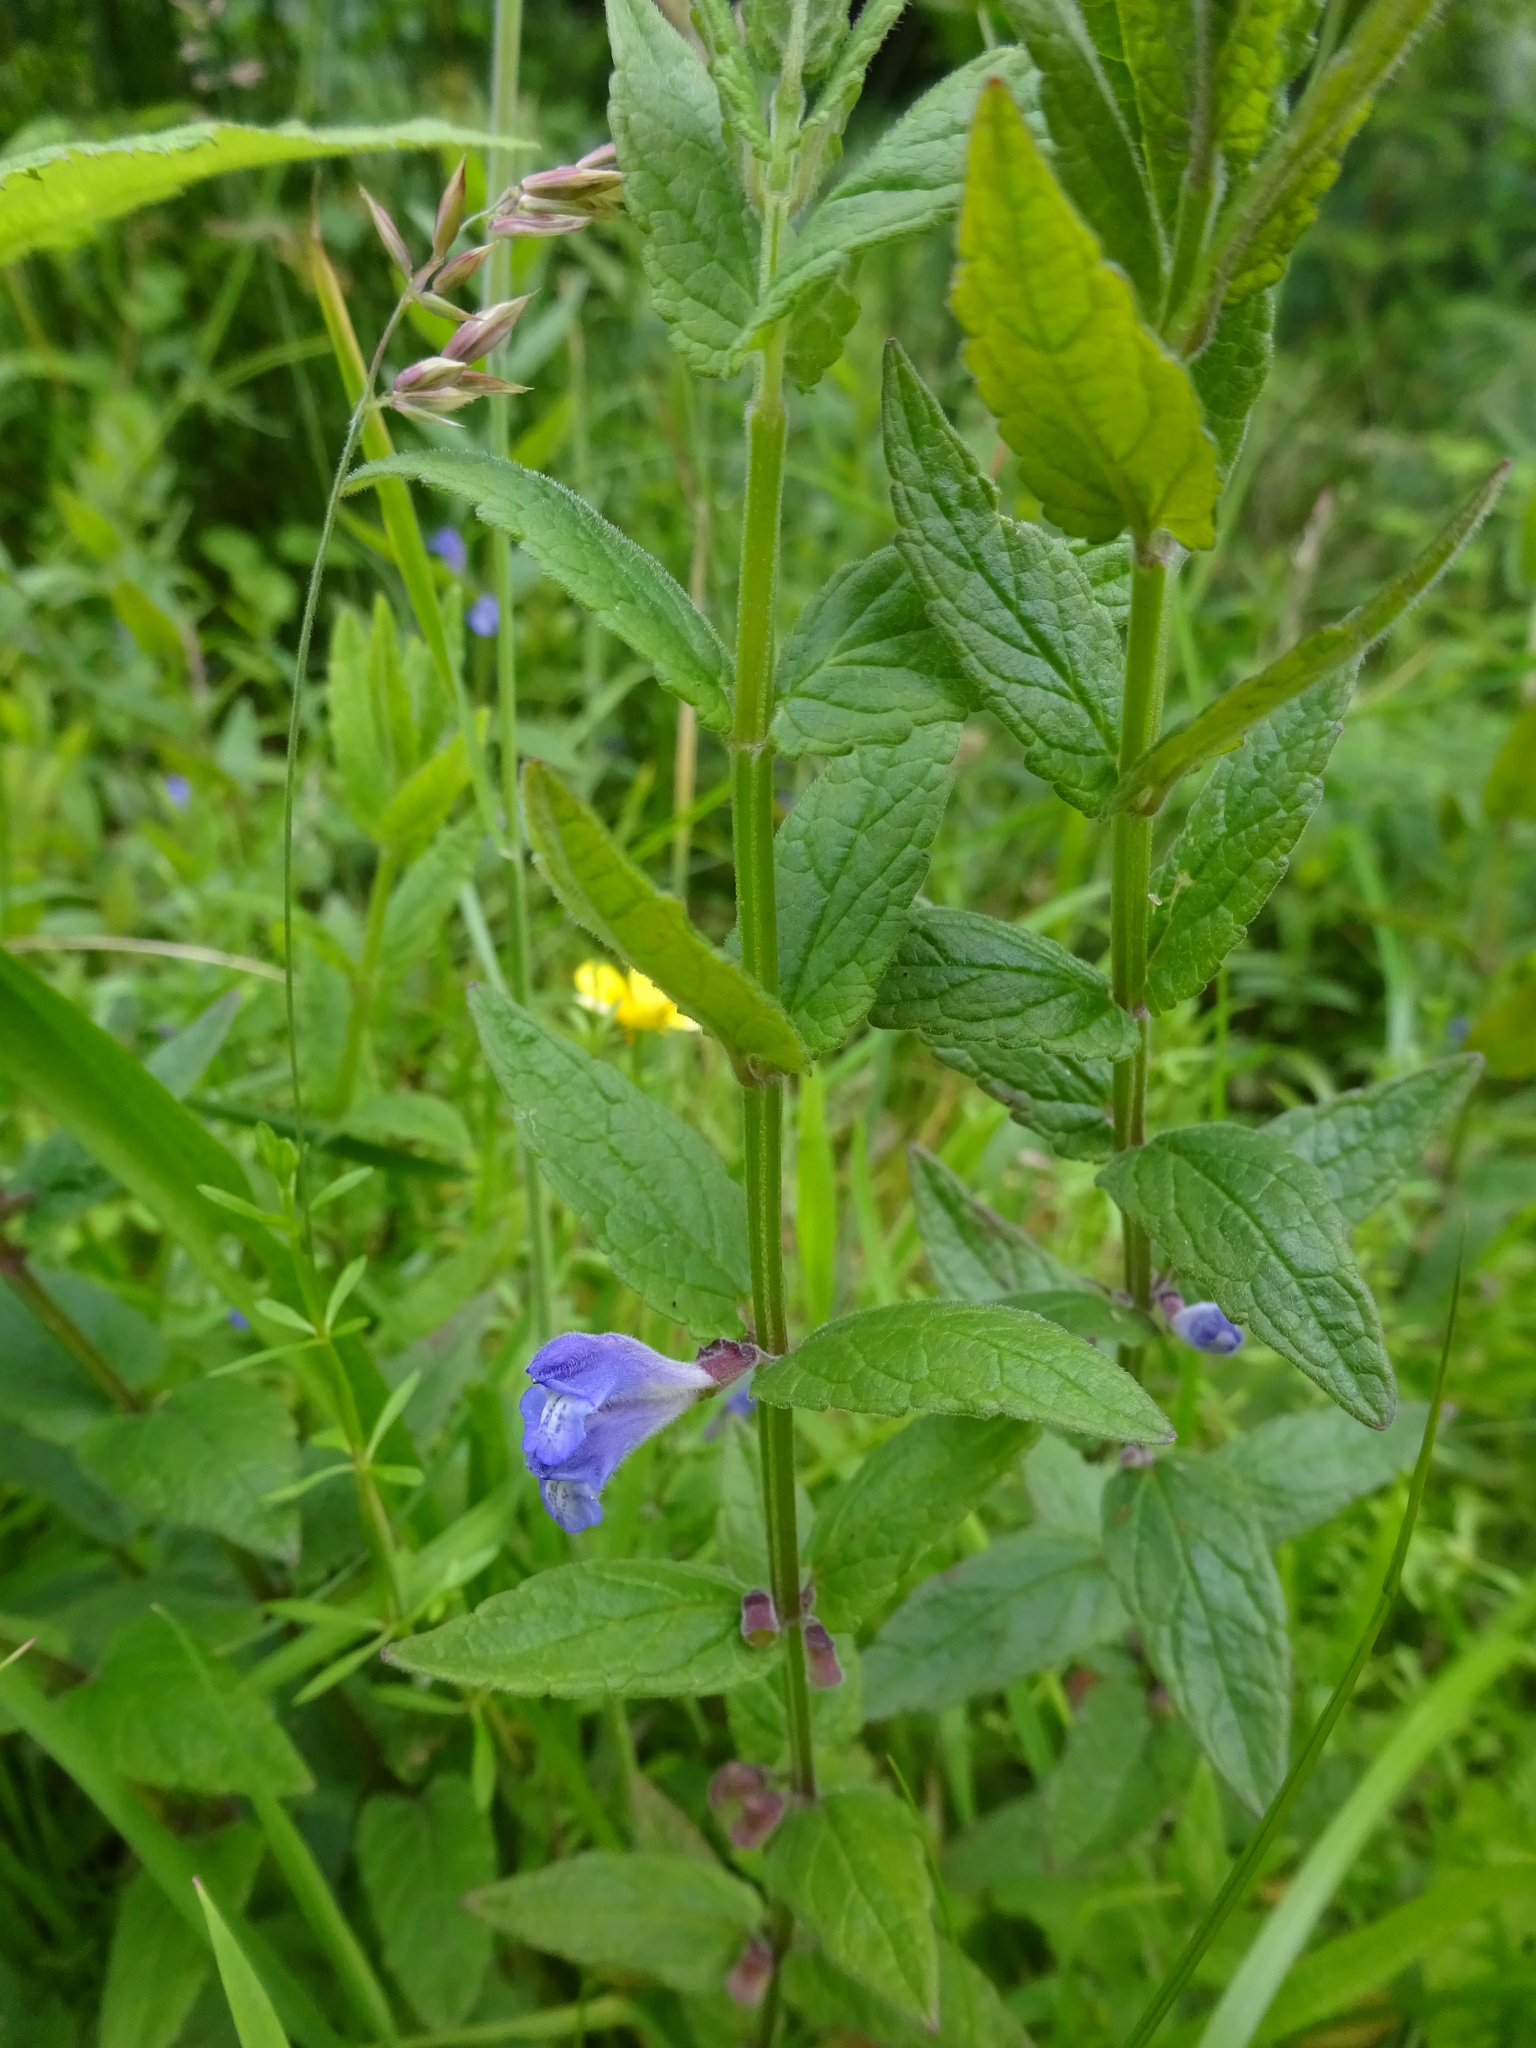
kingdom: Plantae
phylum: Tracheophyta
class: Magnoliopsida
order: Lamiales
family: Lamiaceae
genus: Scutellaria
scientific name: Scutellaria galericulata
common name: Skullcap
